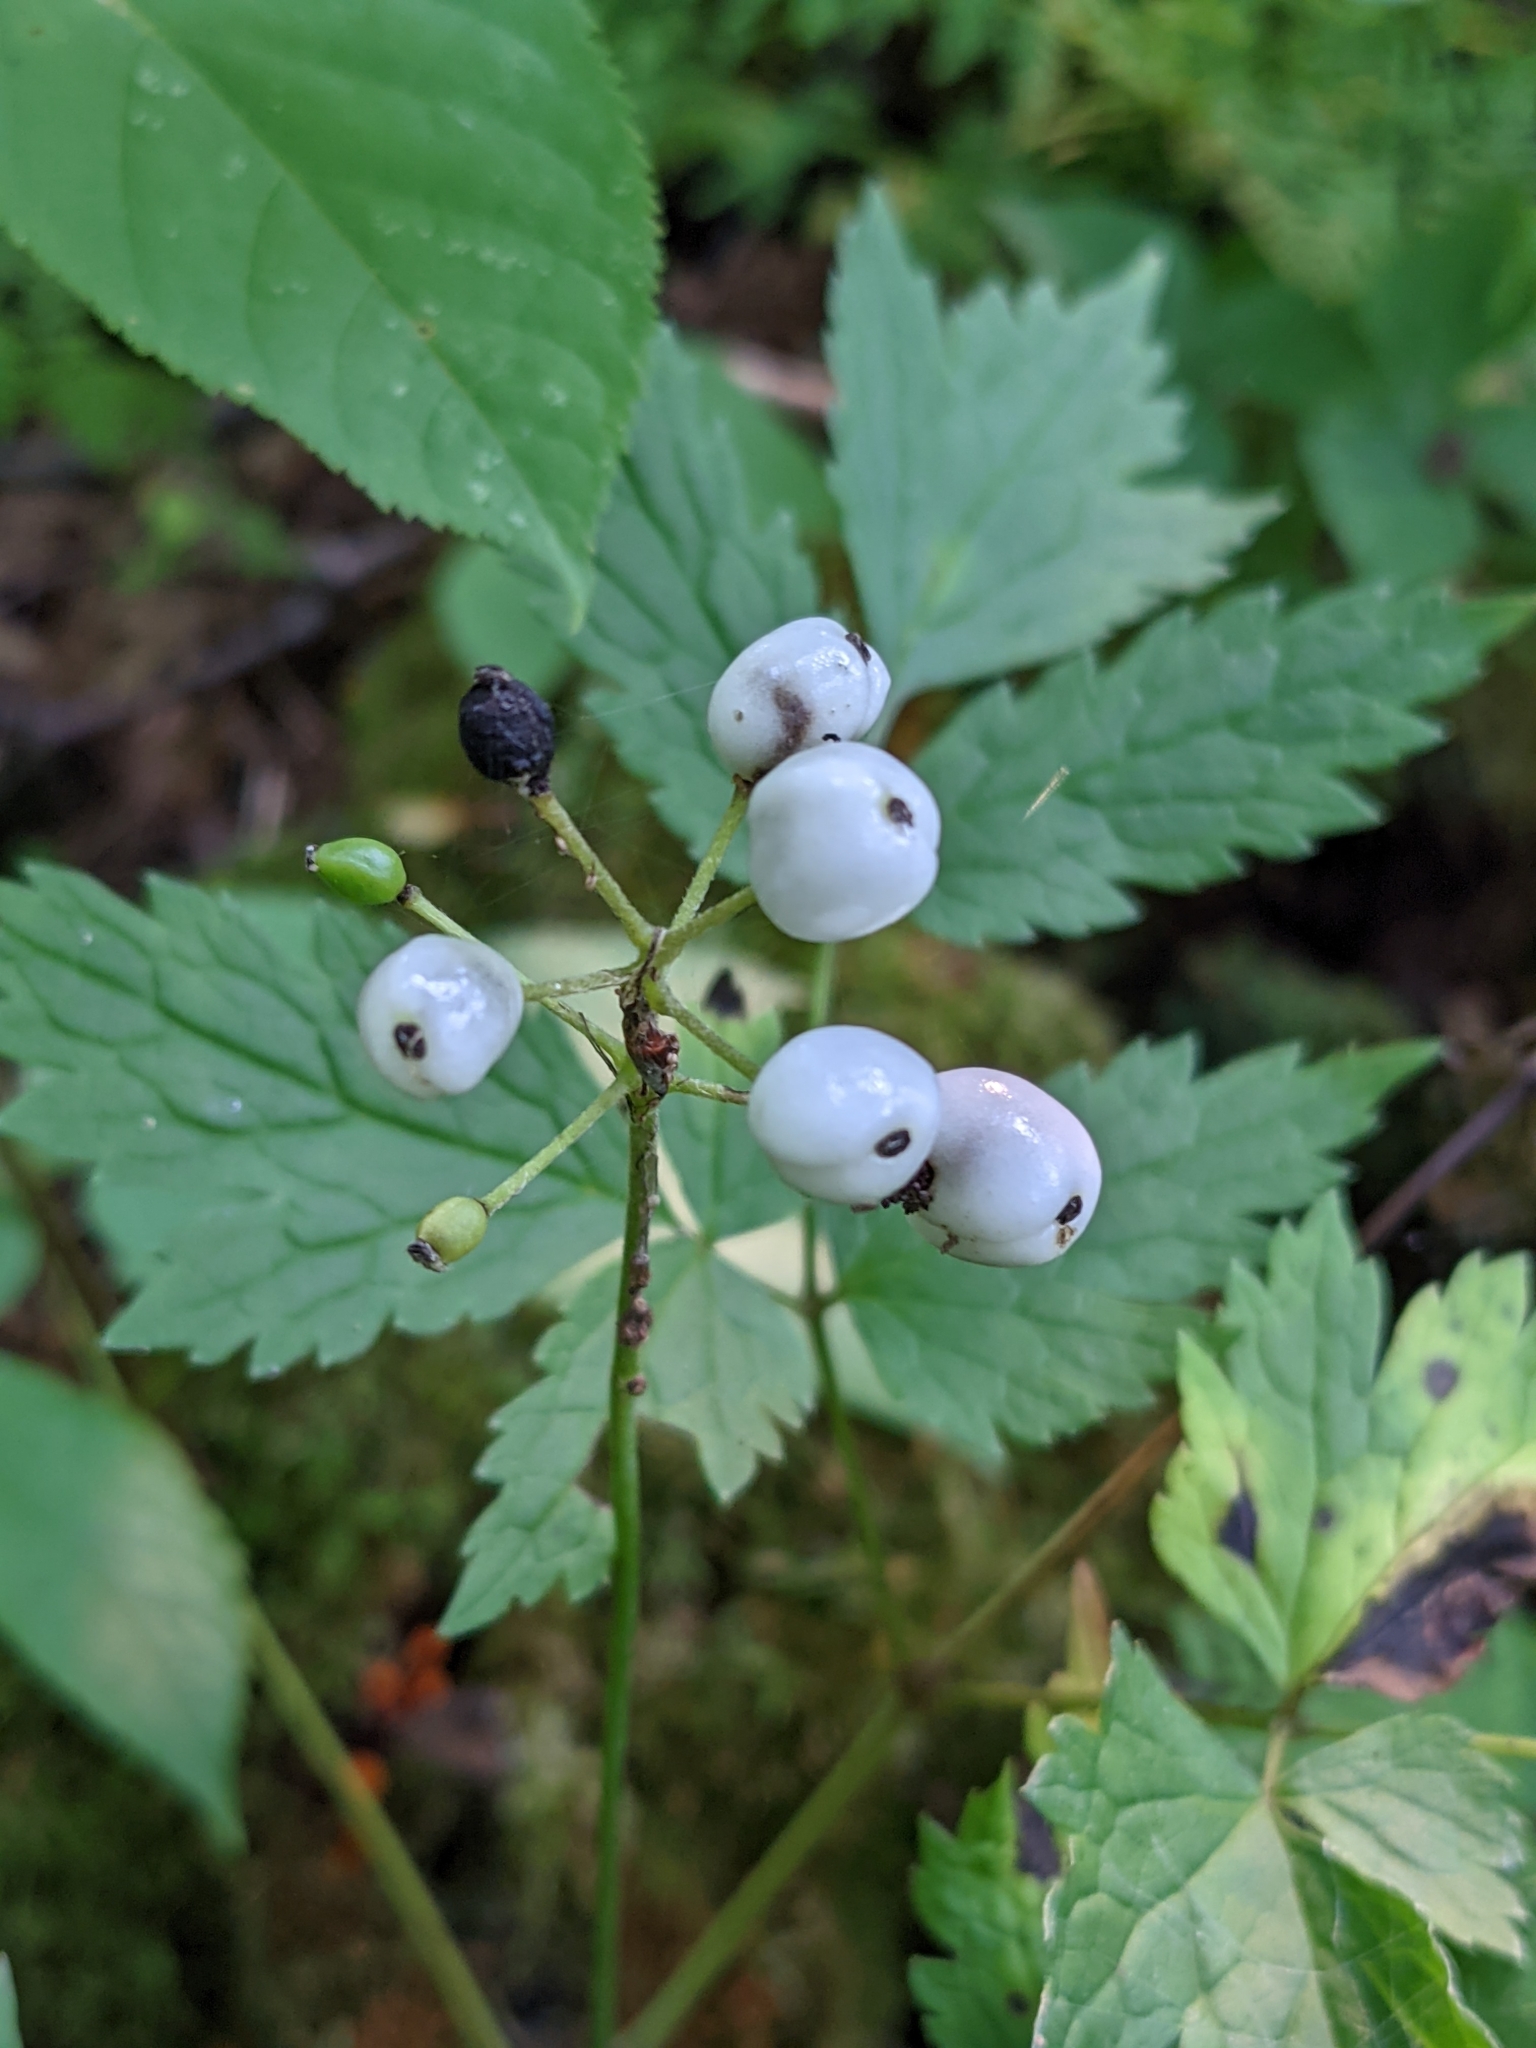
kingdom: Plantae
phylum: Tracheophyta
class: Magnoliopsida
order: Ranunculales
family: Ranunculaceae
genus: Actaea
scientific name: Actaea rubra
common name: Red baneberry
